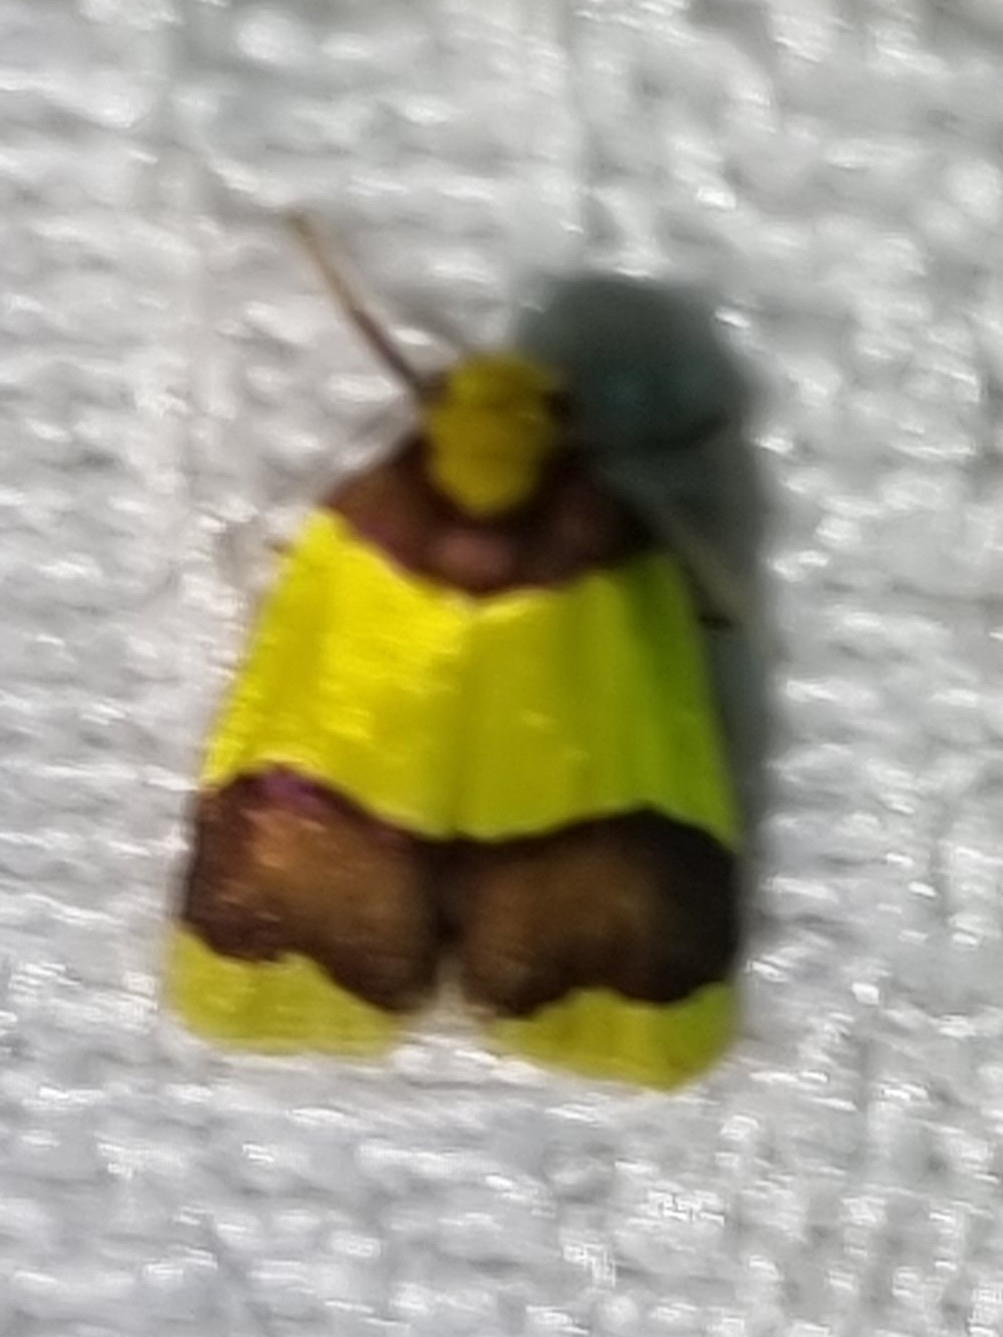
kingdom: Animalia
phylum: Arthropoda
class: Insecta
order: Lepidoptera
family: Erebidae
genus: Heterallactis
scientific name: Heterallactis microchrysa
